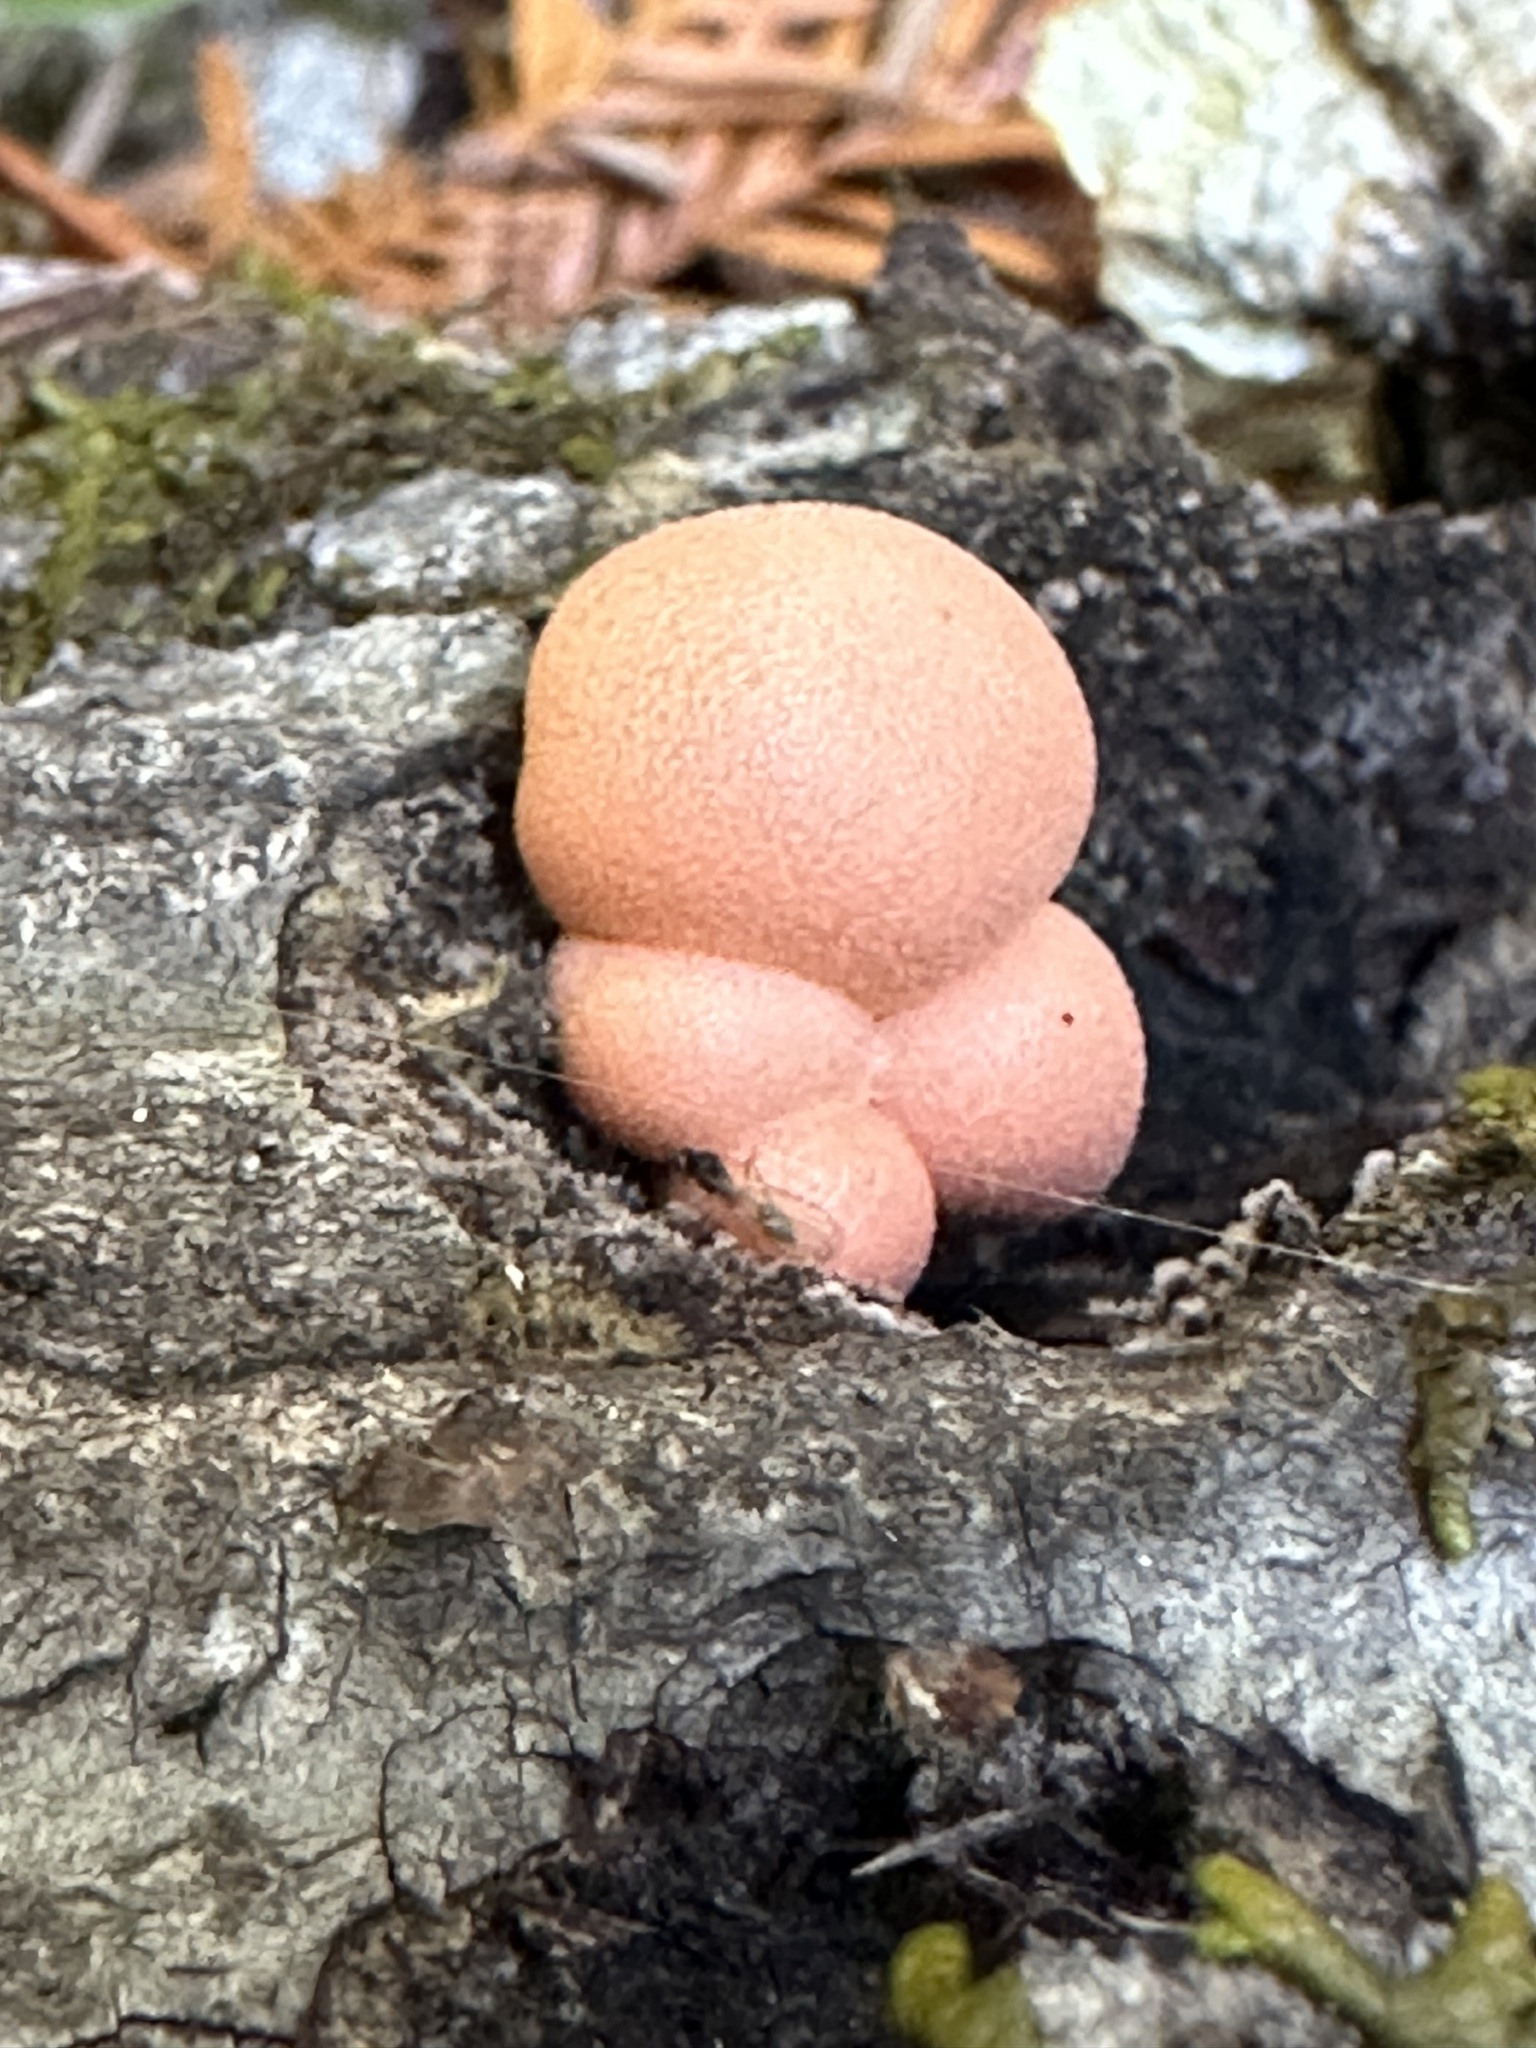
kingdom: Protozoa
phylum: Mycetozoa
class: Myxomycetes
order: Cribrariales
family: Tubiferaceae
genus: Lycogala
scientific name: Lycogala epidendrum
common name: Wolf's milk
